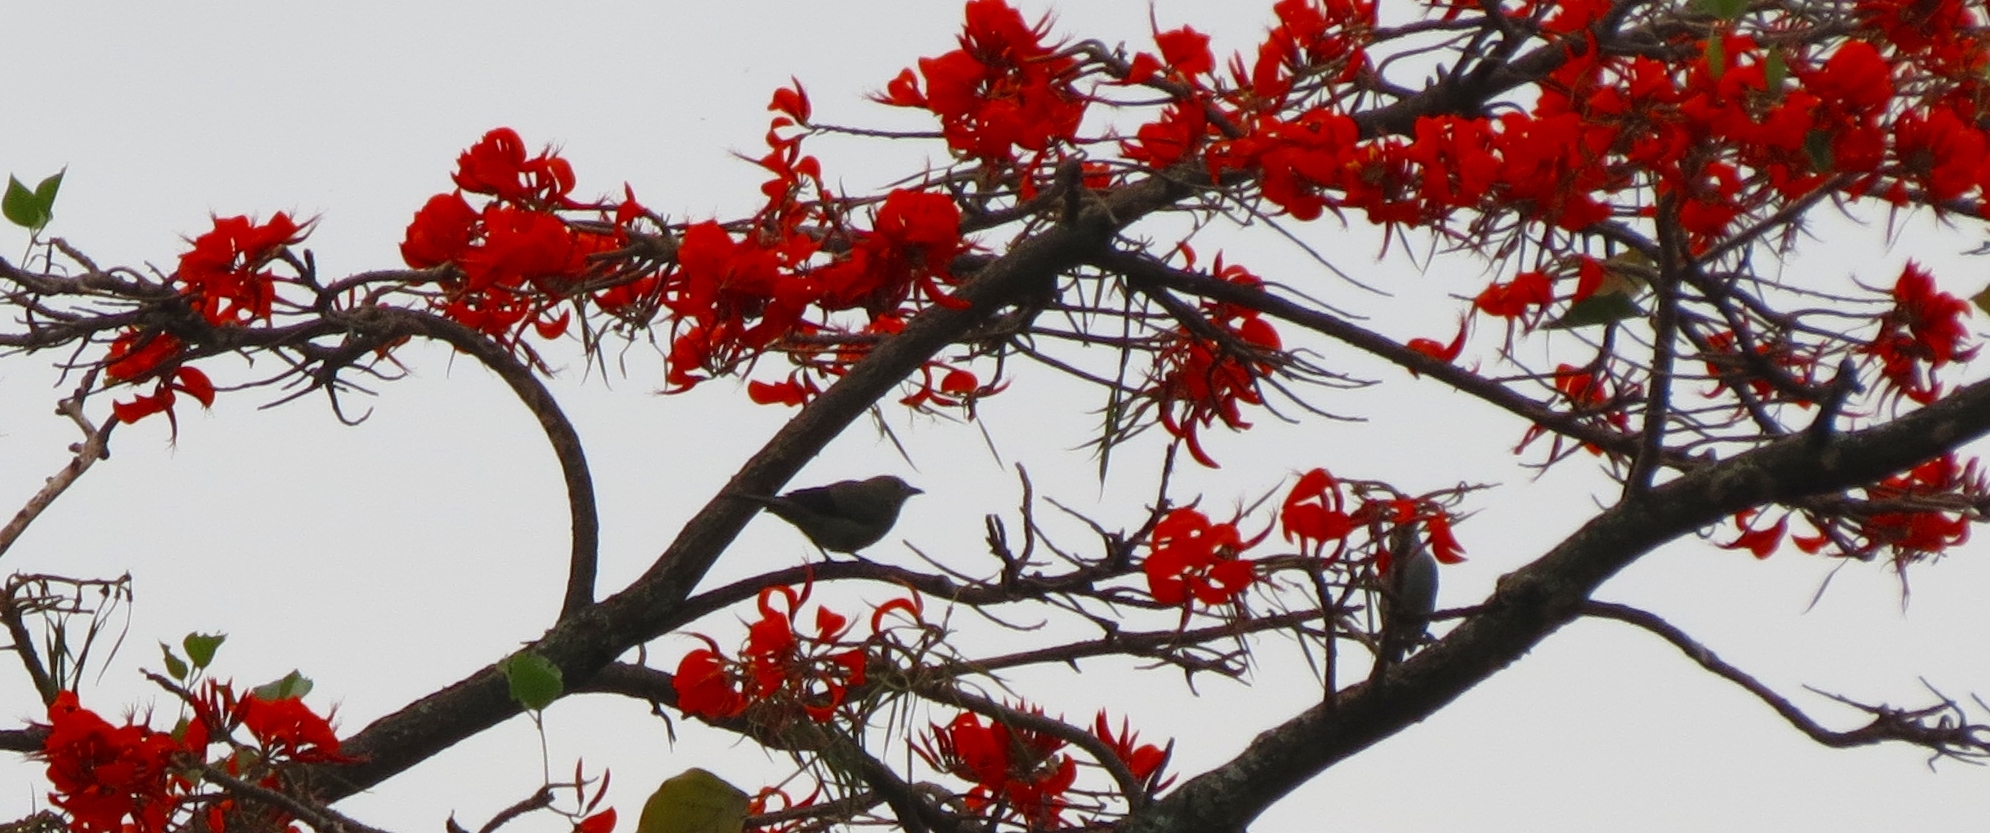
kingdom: Animalia
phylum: Chordata
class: Aves
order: Passeriformes
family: Thraupidae
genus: Thraupis
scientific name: Thraupis palmarum
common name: Palm tanager
